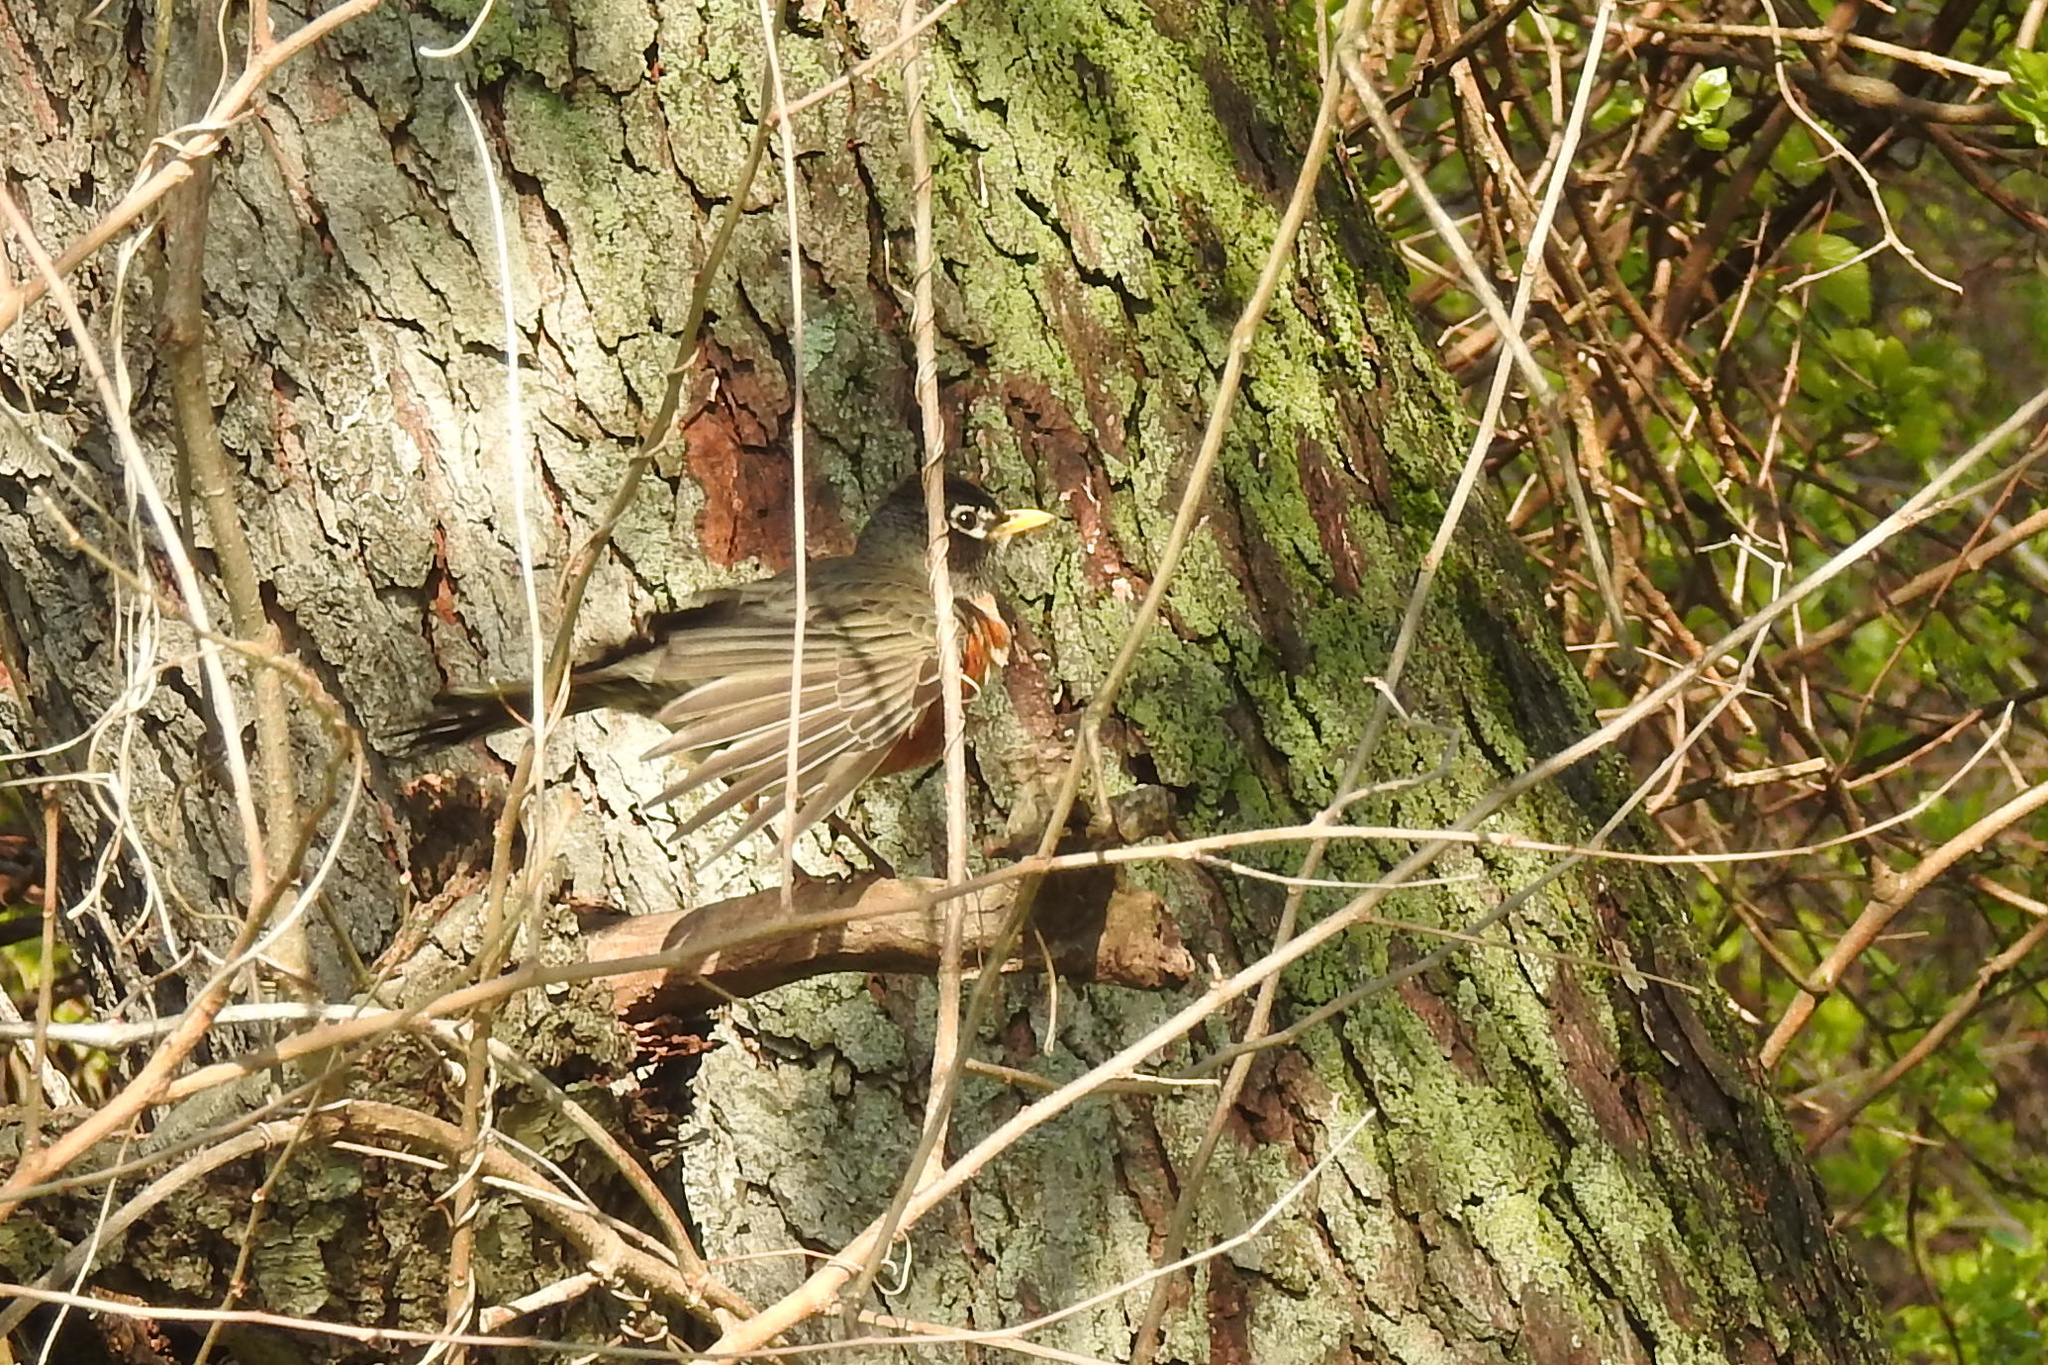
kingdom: Animalia
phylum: Chordata
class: Aves
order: Passeriformes
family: Turdidae
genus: Turdus
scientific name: Turdus migratorius
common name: American robin
